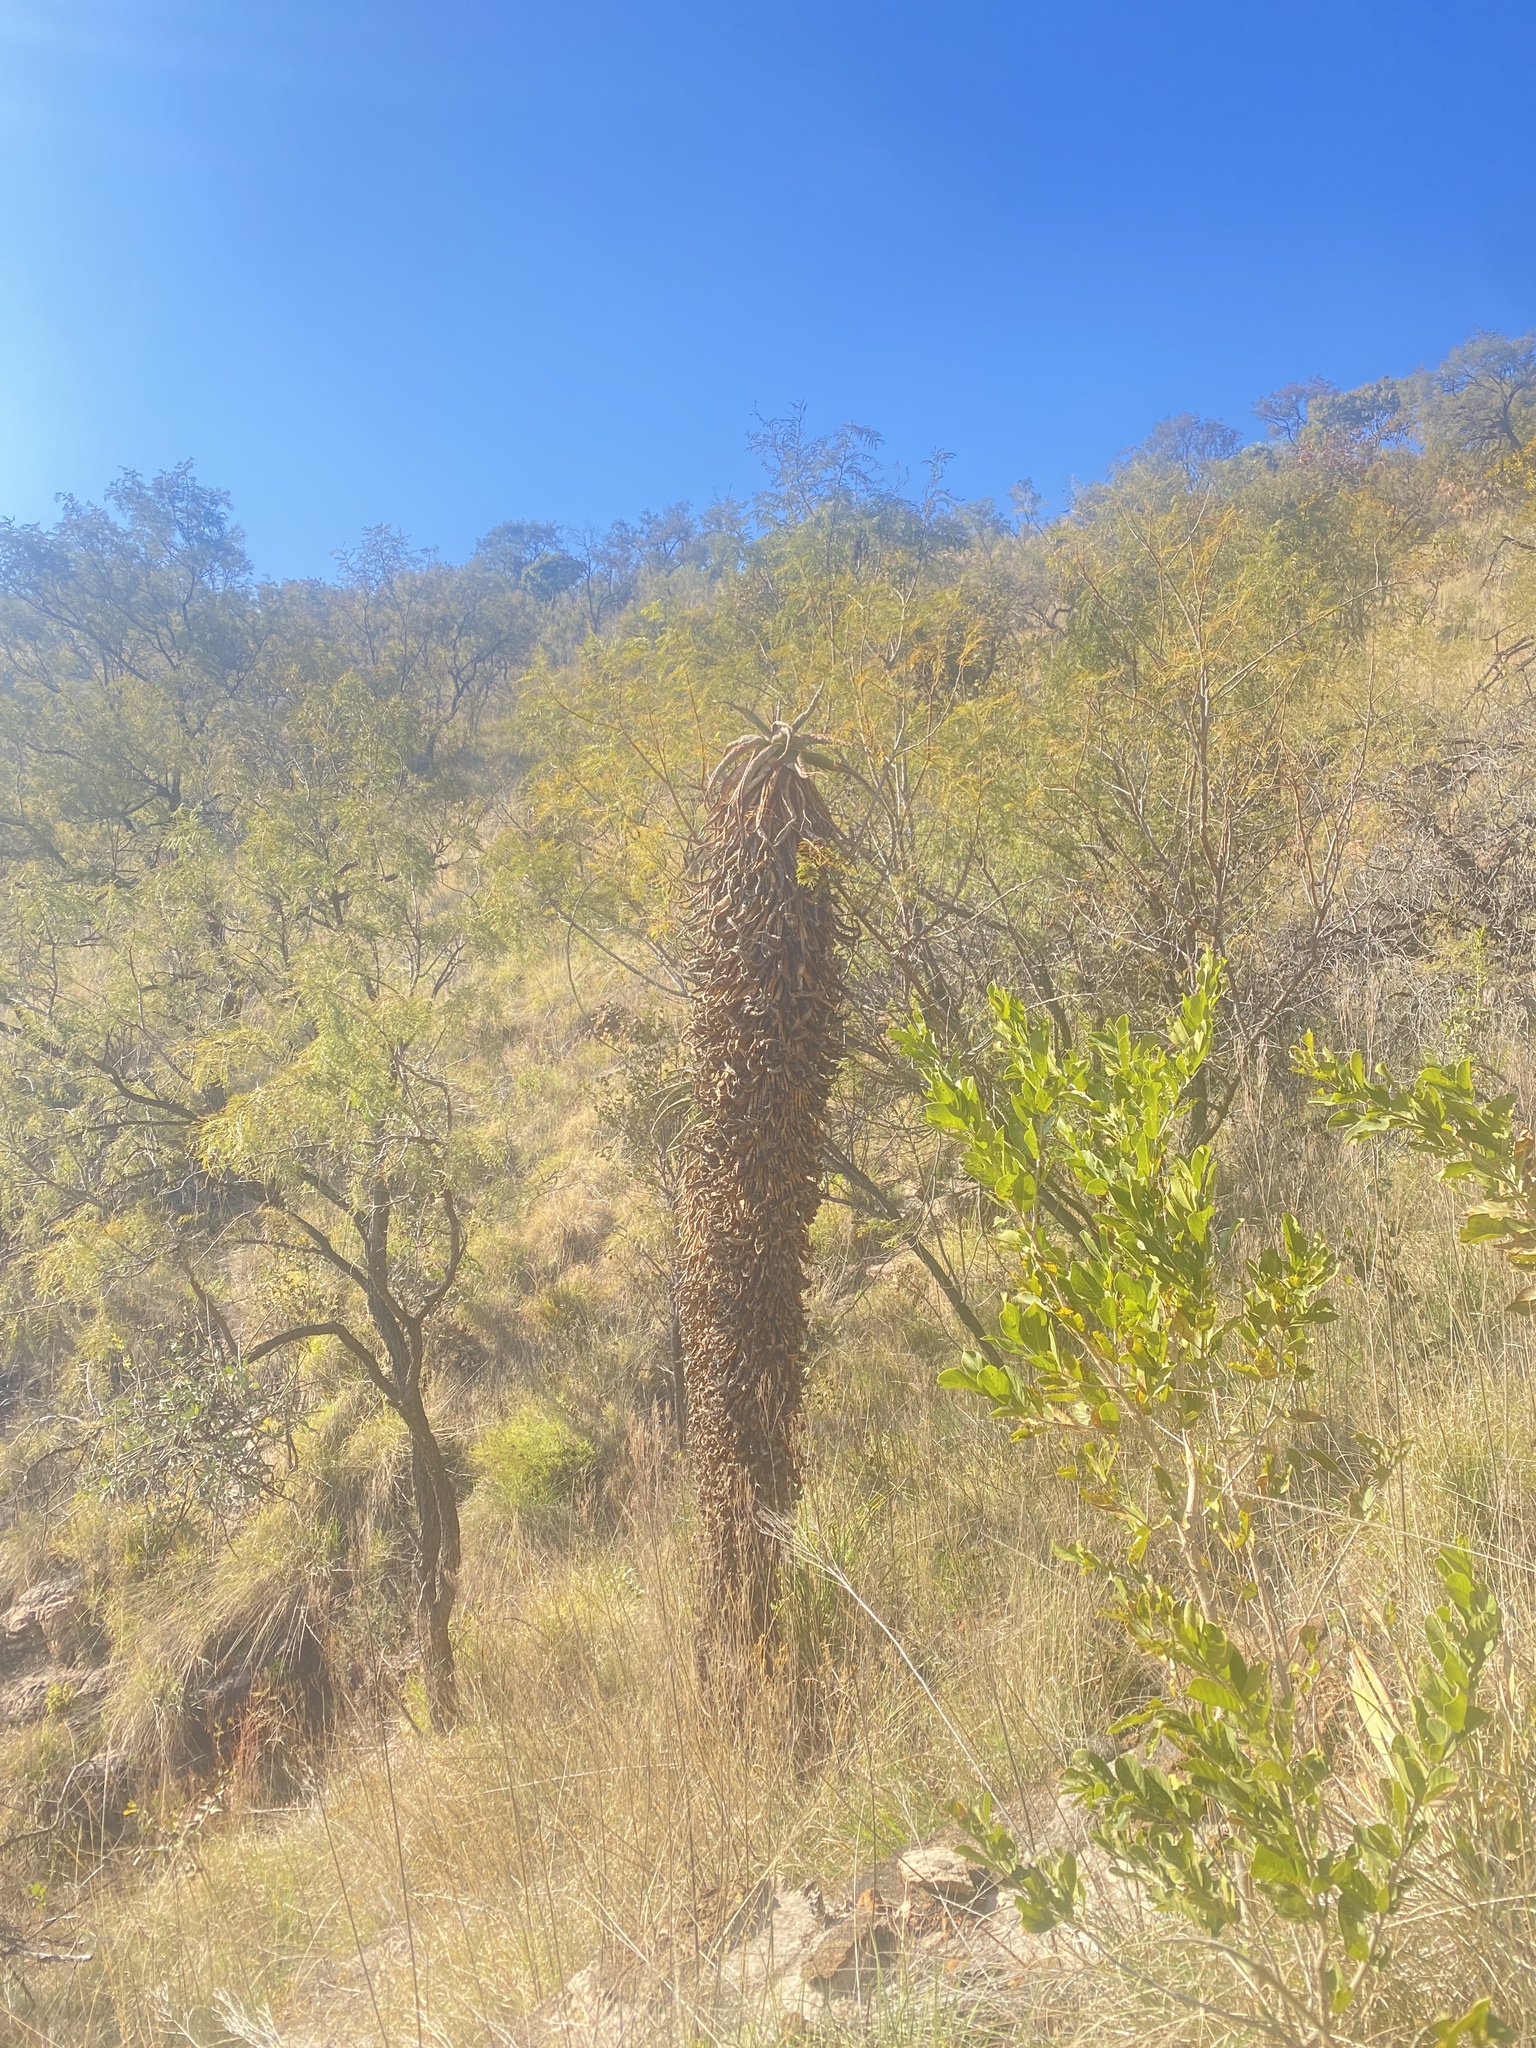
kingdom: Plantae
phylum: Tracheophyta
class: Liliopsida
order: Asparagales
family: Asphodelaceae
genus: Aloe
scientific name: Aloe marlothii
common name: Flat-flowered aloe
